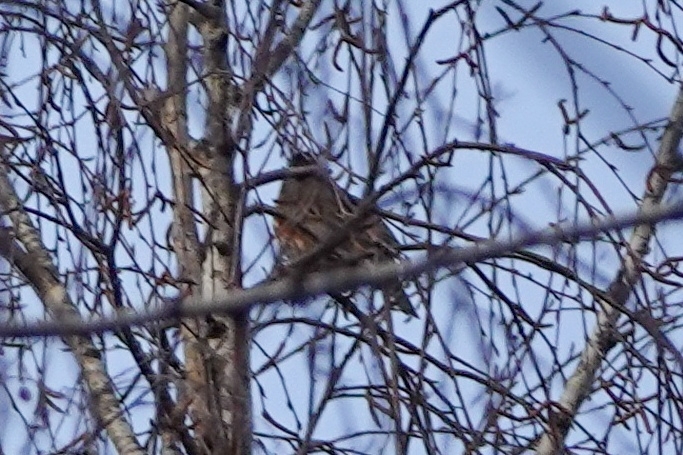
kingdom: Animalia
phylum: Chordata
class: Aves
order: Passeriformes
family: Turdidae
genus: Turdus
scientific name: Turdus iliacus
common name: Redwing
